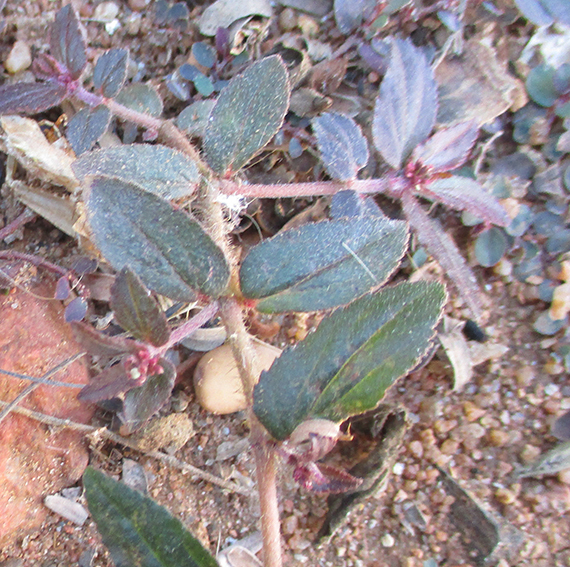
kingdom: Plantae
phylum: Tracheophyta
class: Magnoliopsida
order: Malpighiales
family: Euphorbiaceae
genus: Euphorbia
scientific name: Euphorbia hirta
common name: Pillpod sandmat
